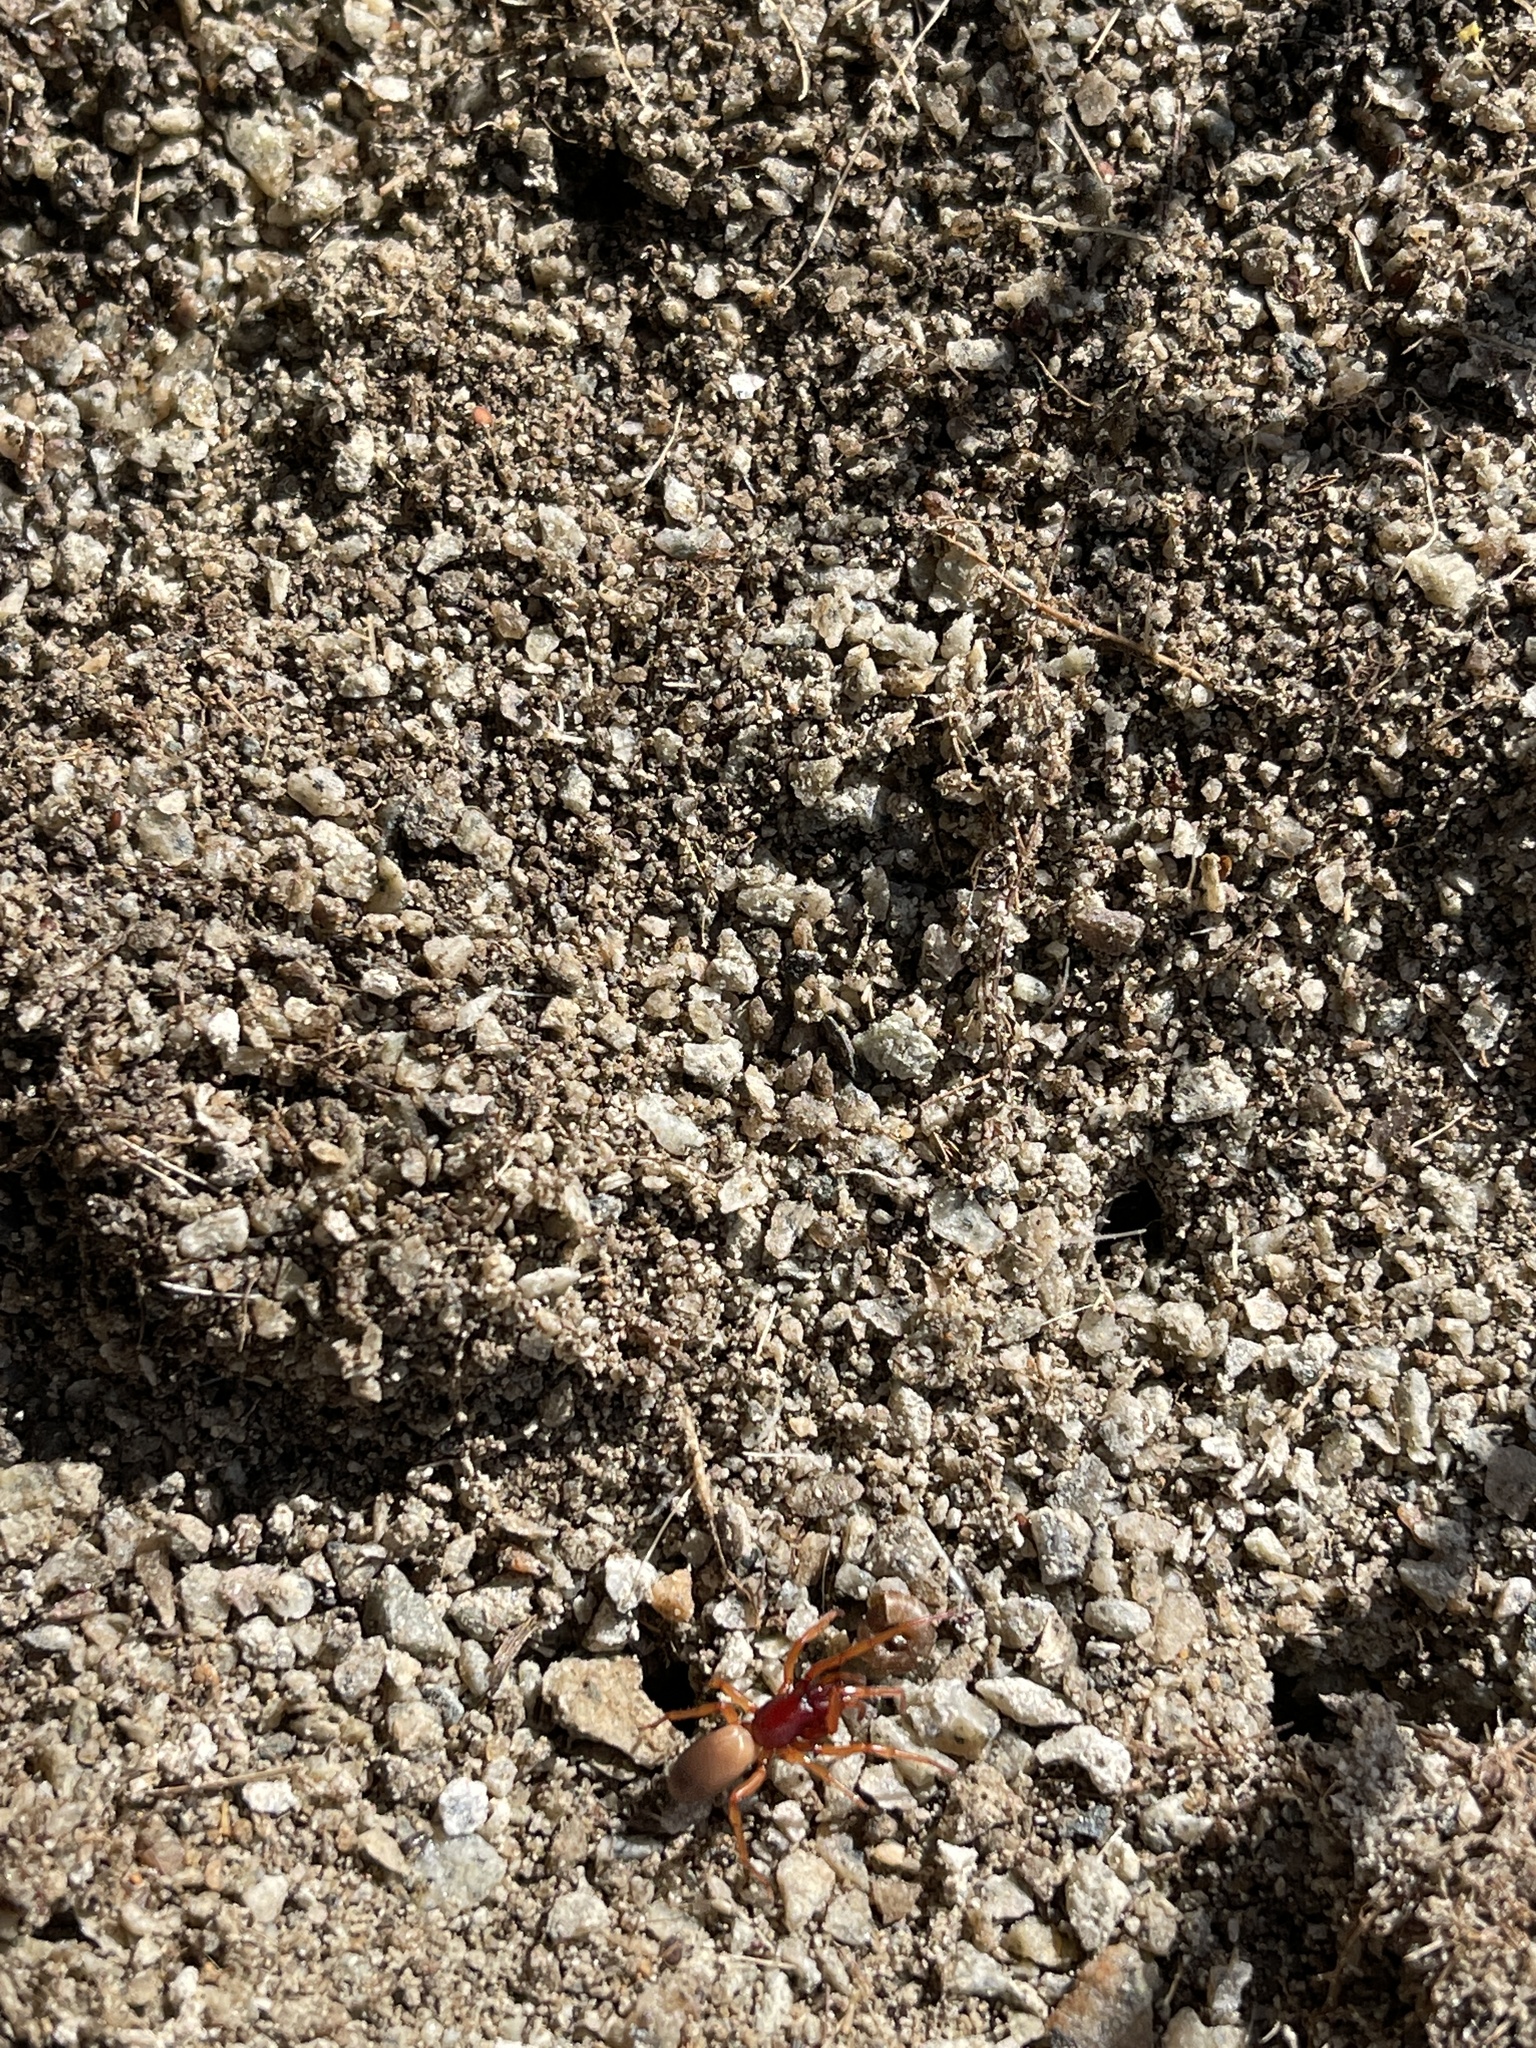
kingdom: Animalia
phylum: Arthropoda
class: Arachnida
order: Araneae
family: Dysderidae
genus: Dysdera
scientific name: Dysdera crocata
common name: Woodlouse spider
